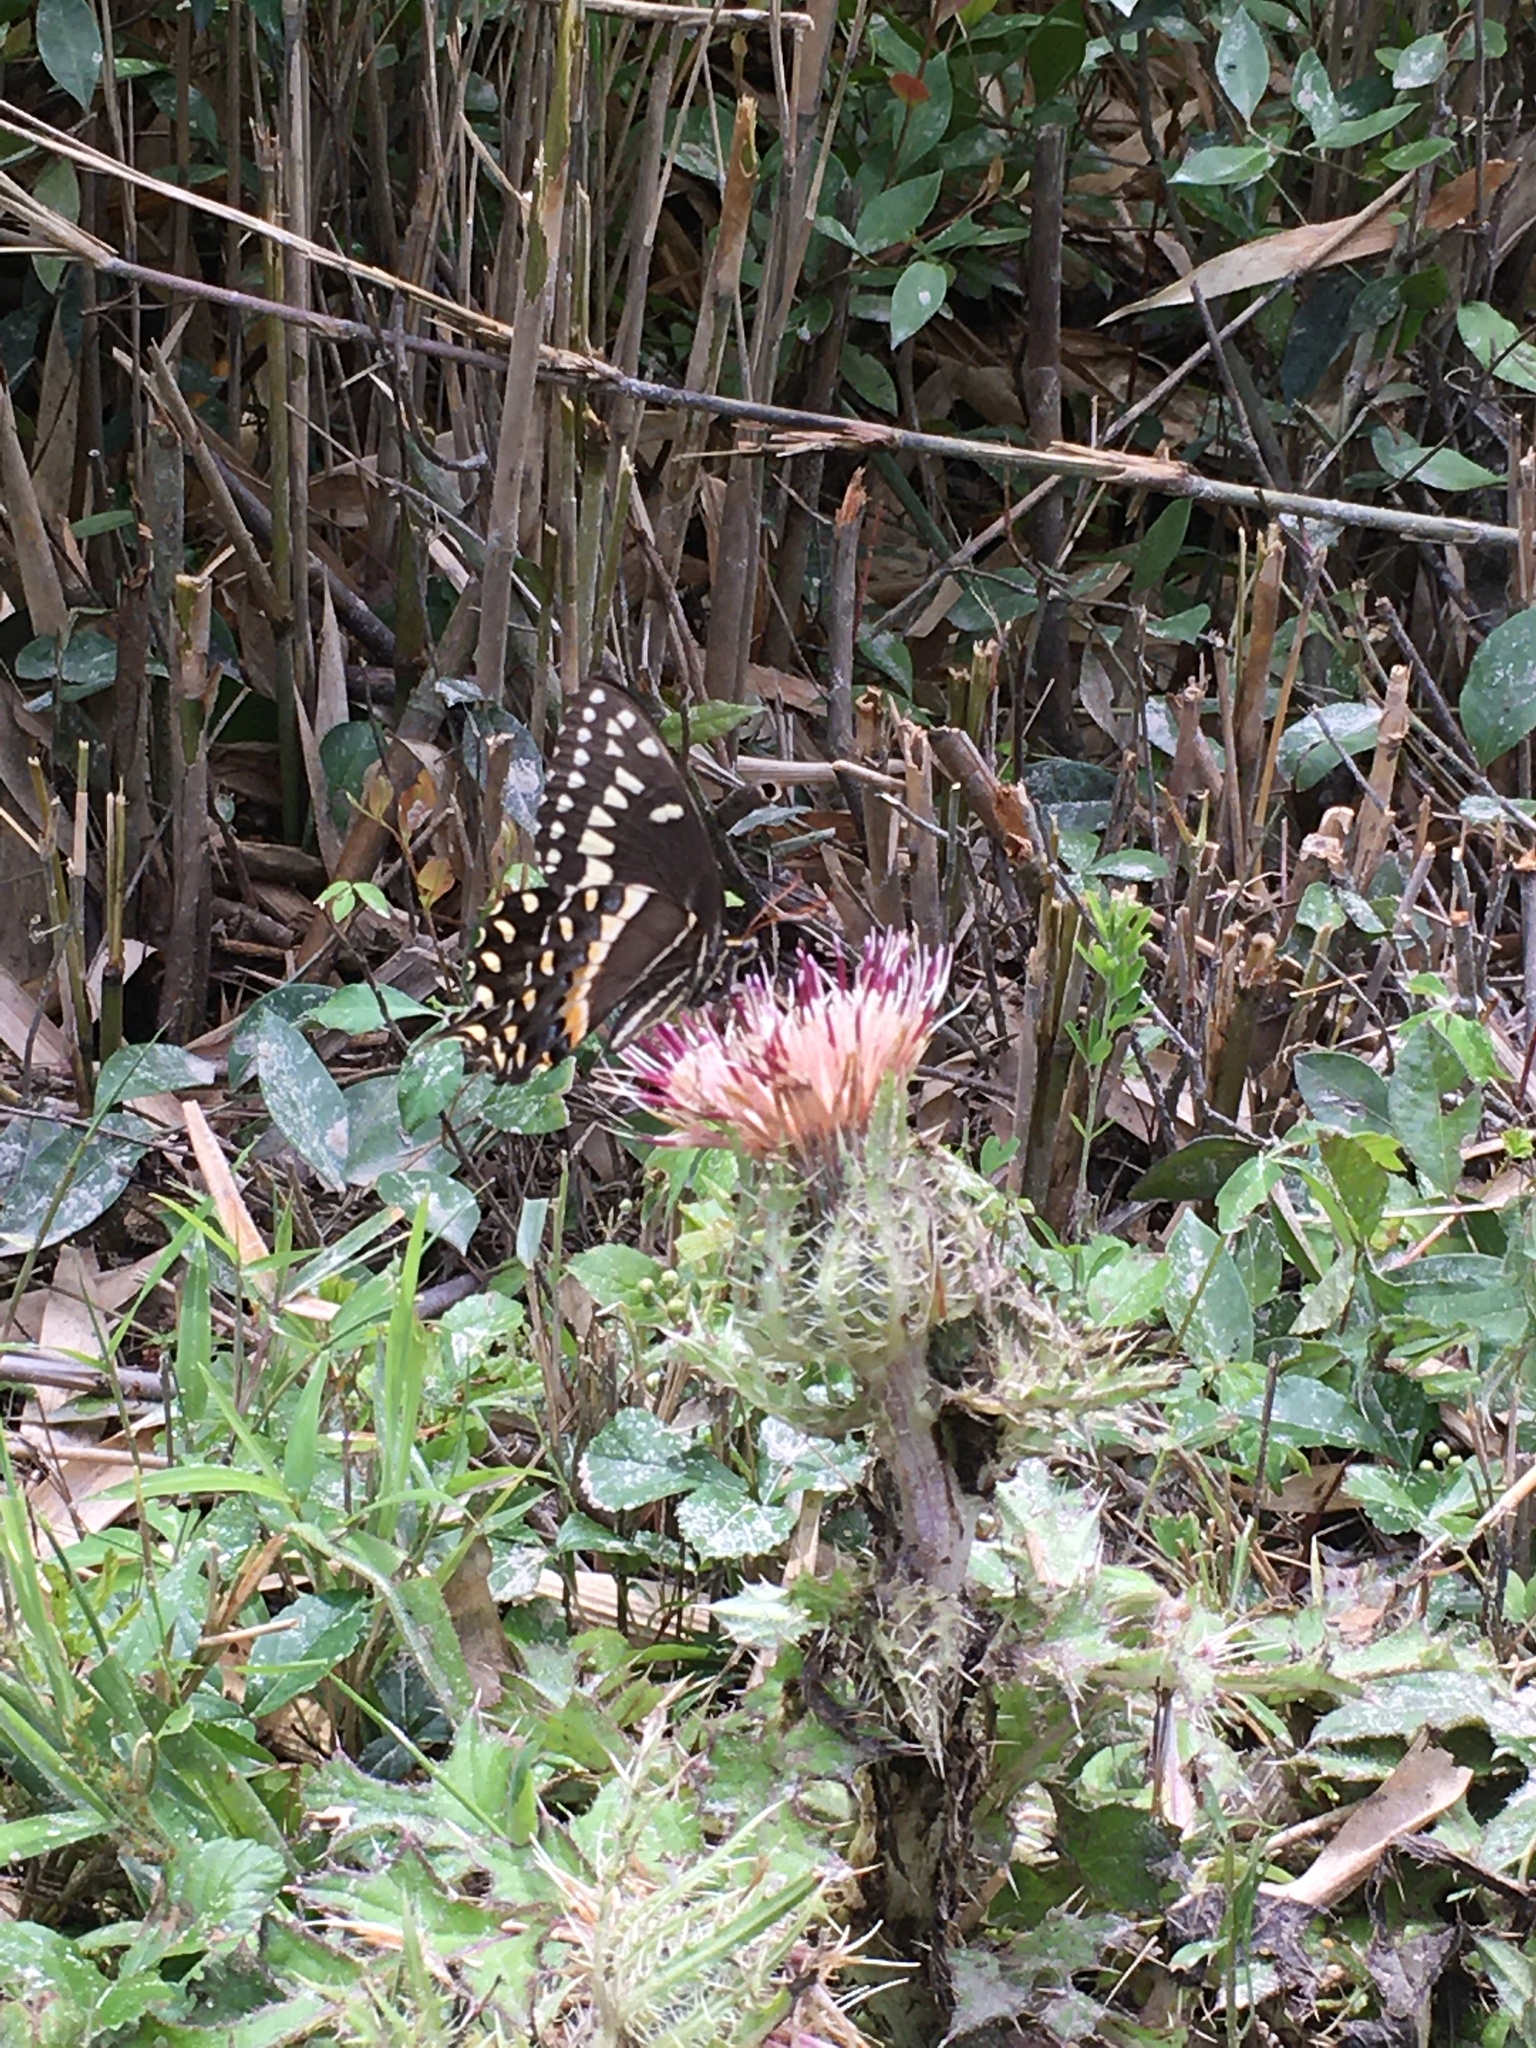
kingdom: Animalia
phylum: Arthropoda
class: Insecta
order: Lepidoptera
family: Papilionidae
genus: Papilio
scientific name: Papilio palamedes
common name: Palamedes swallowtail
